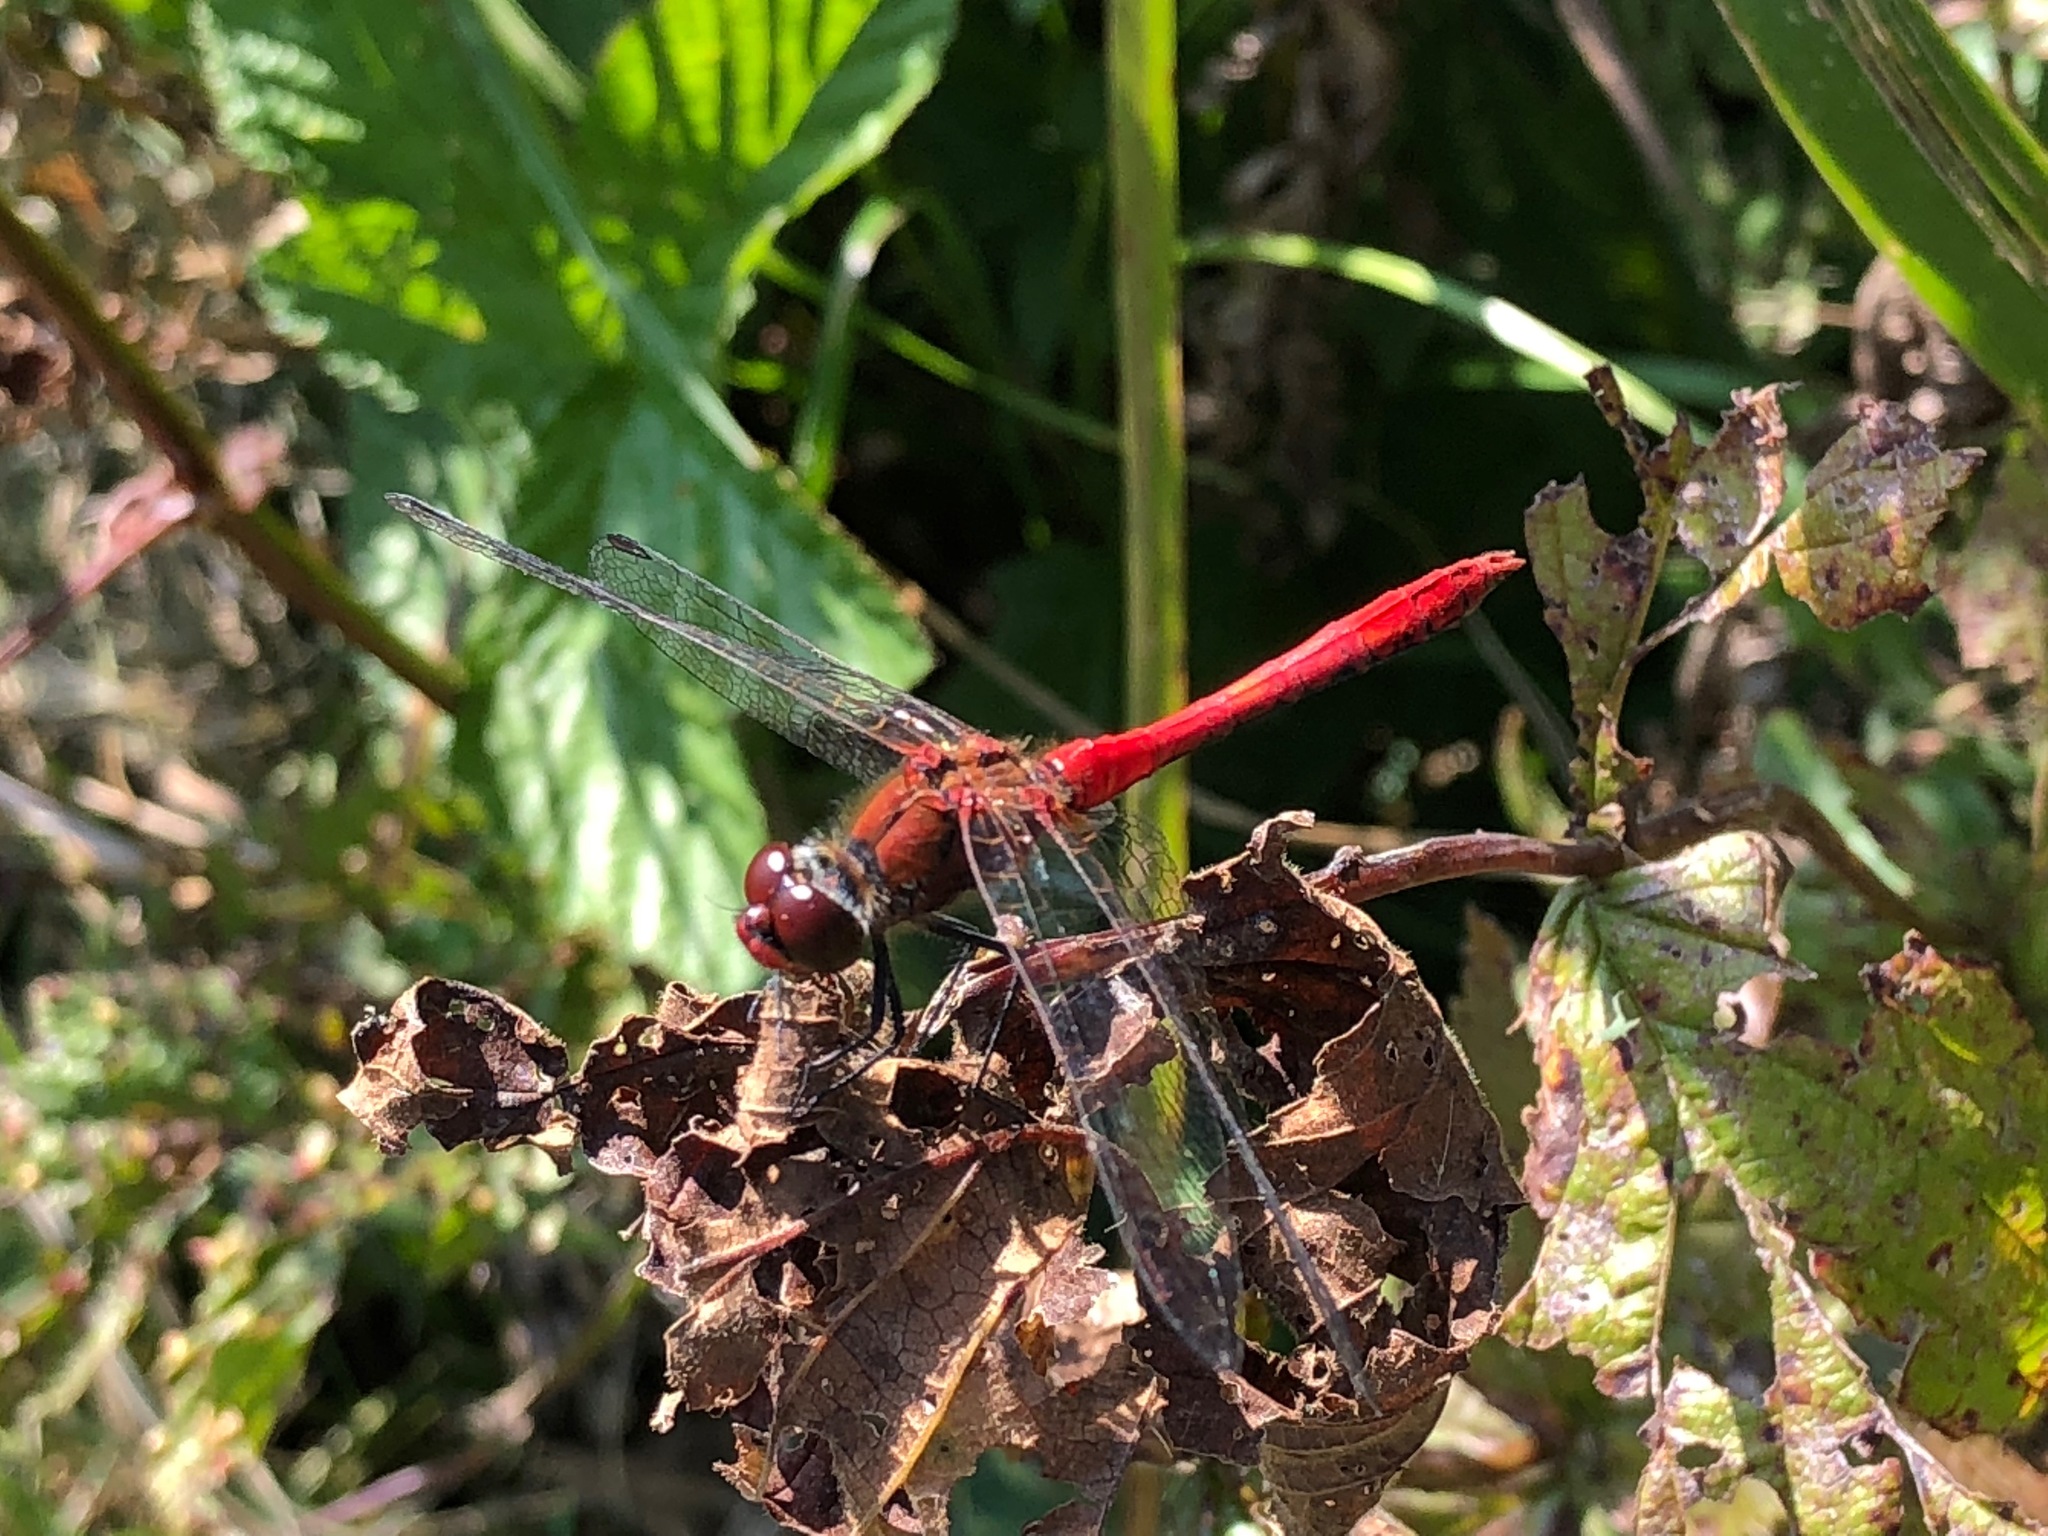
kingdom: Animalia
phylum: Arthropoda
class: Insecta
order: Odonata
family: Libellulidae
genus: Sympetrum
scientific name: Sympetrum sanguineum
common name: Ruddy darter
